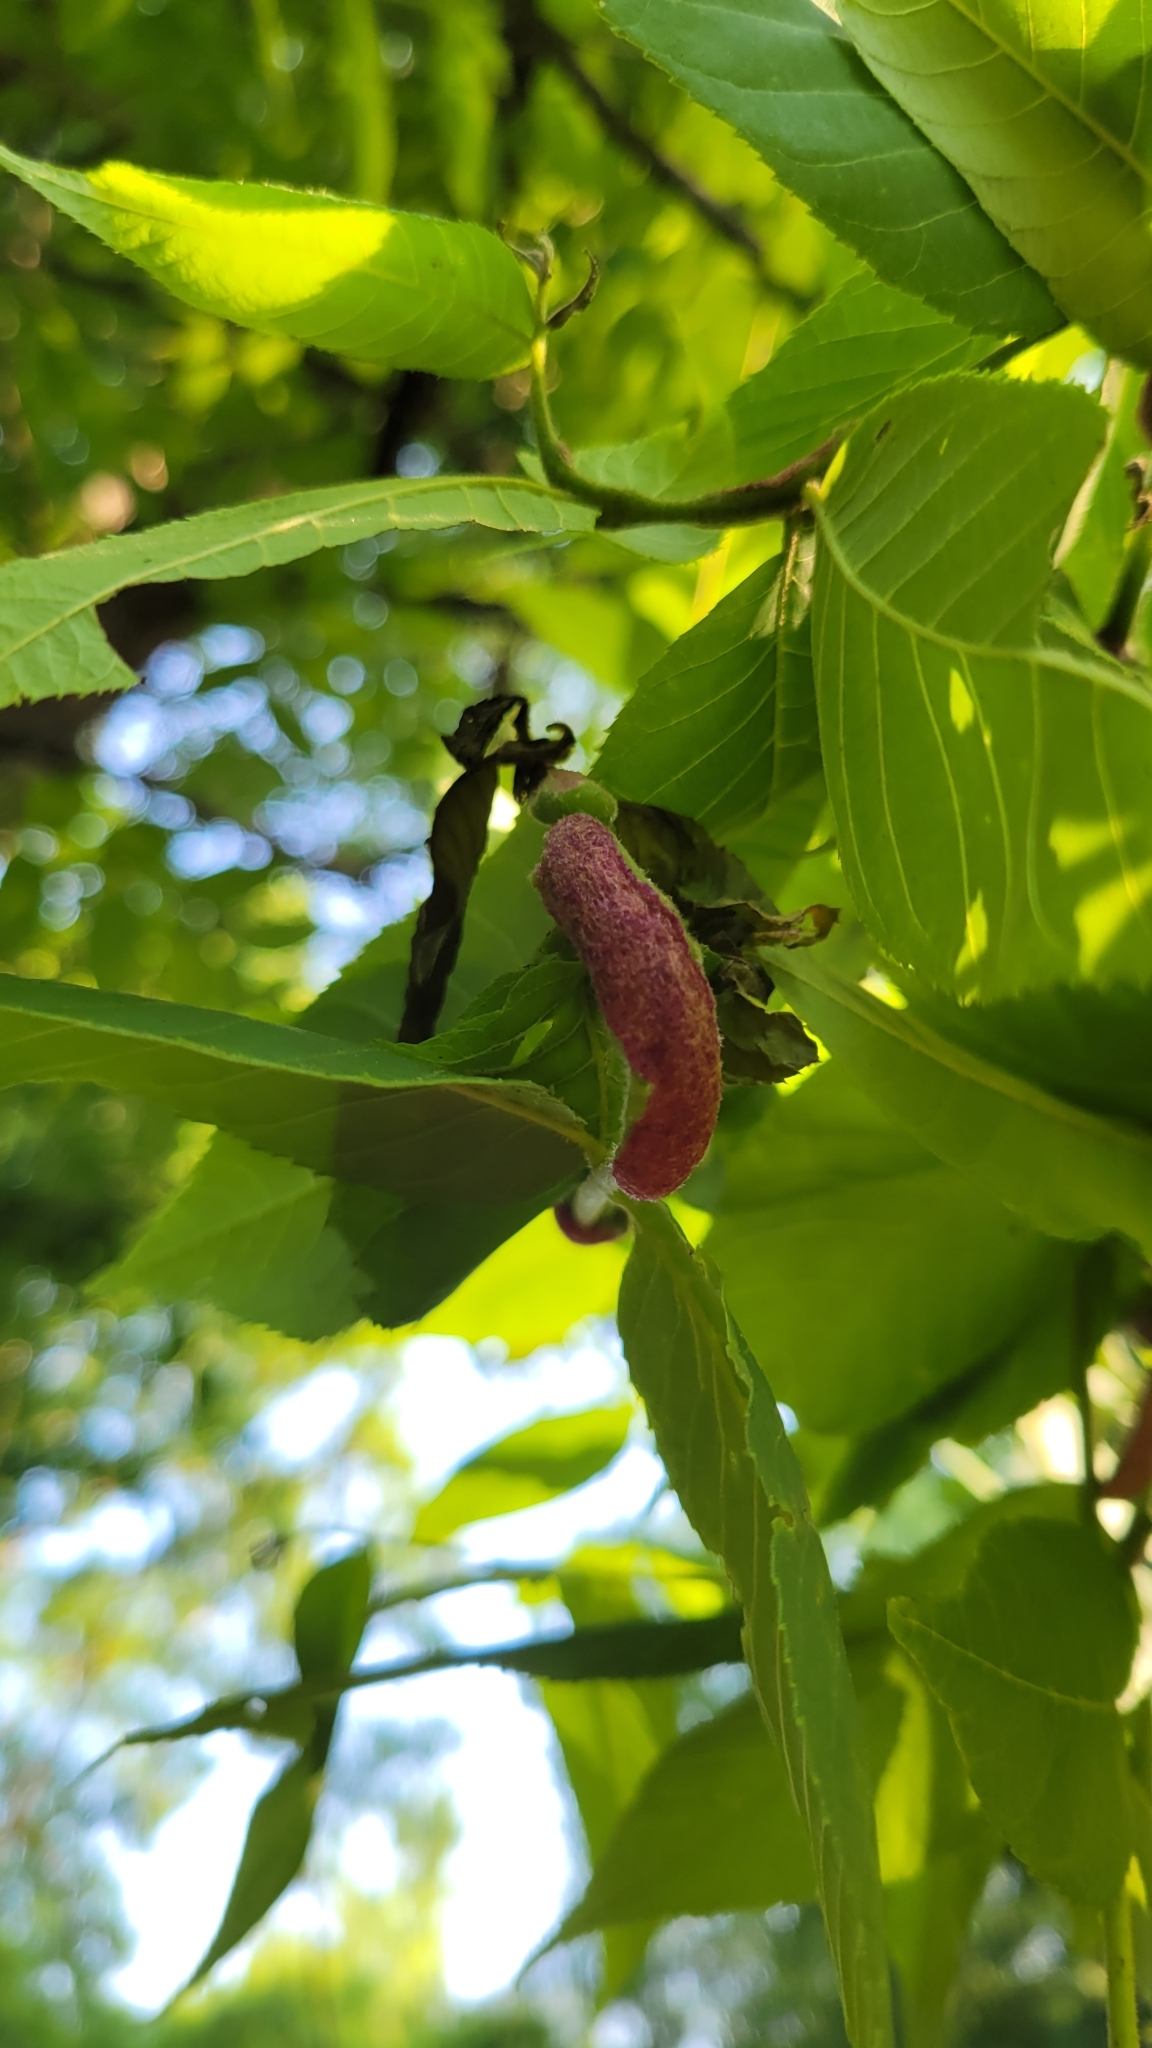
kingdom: Animalia
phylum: Arthropoda
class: Arachnida
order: Trombidiformes
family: Eriophyidae
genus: Aceria
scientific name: Aceria
